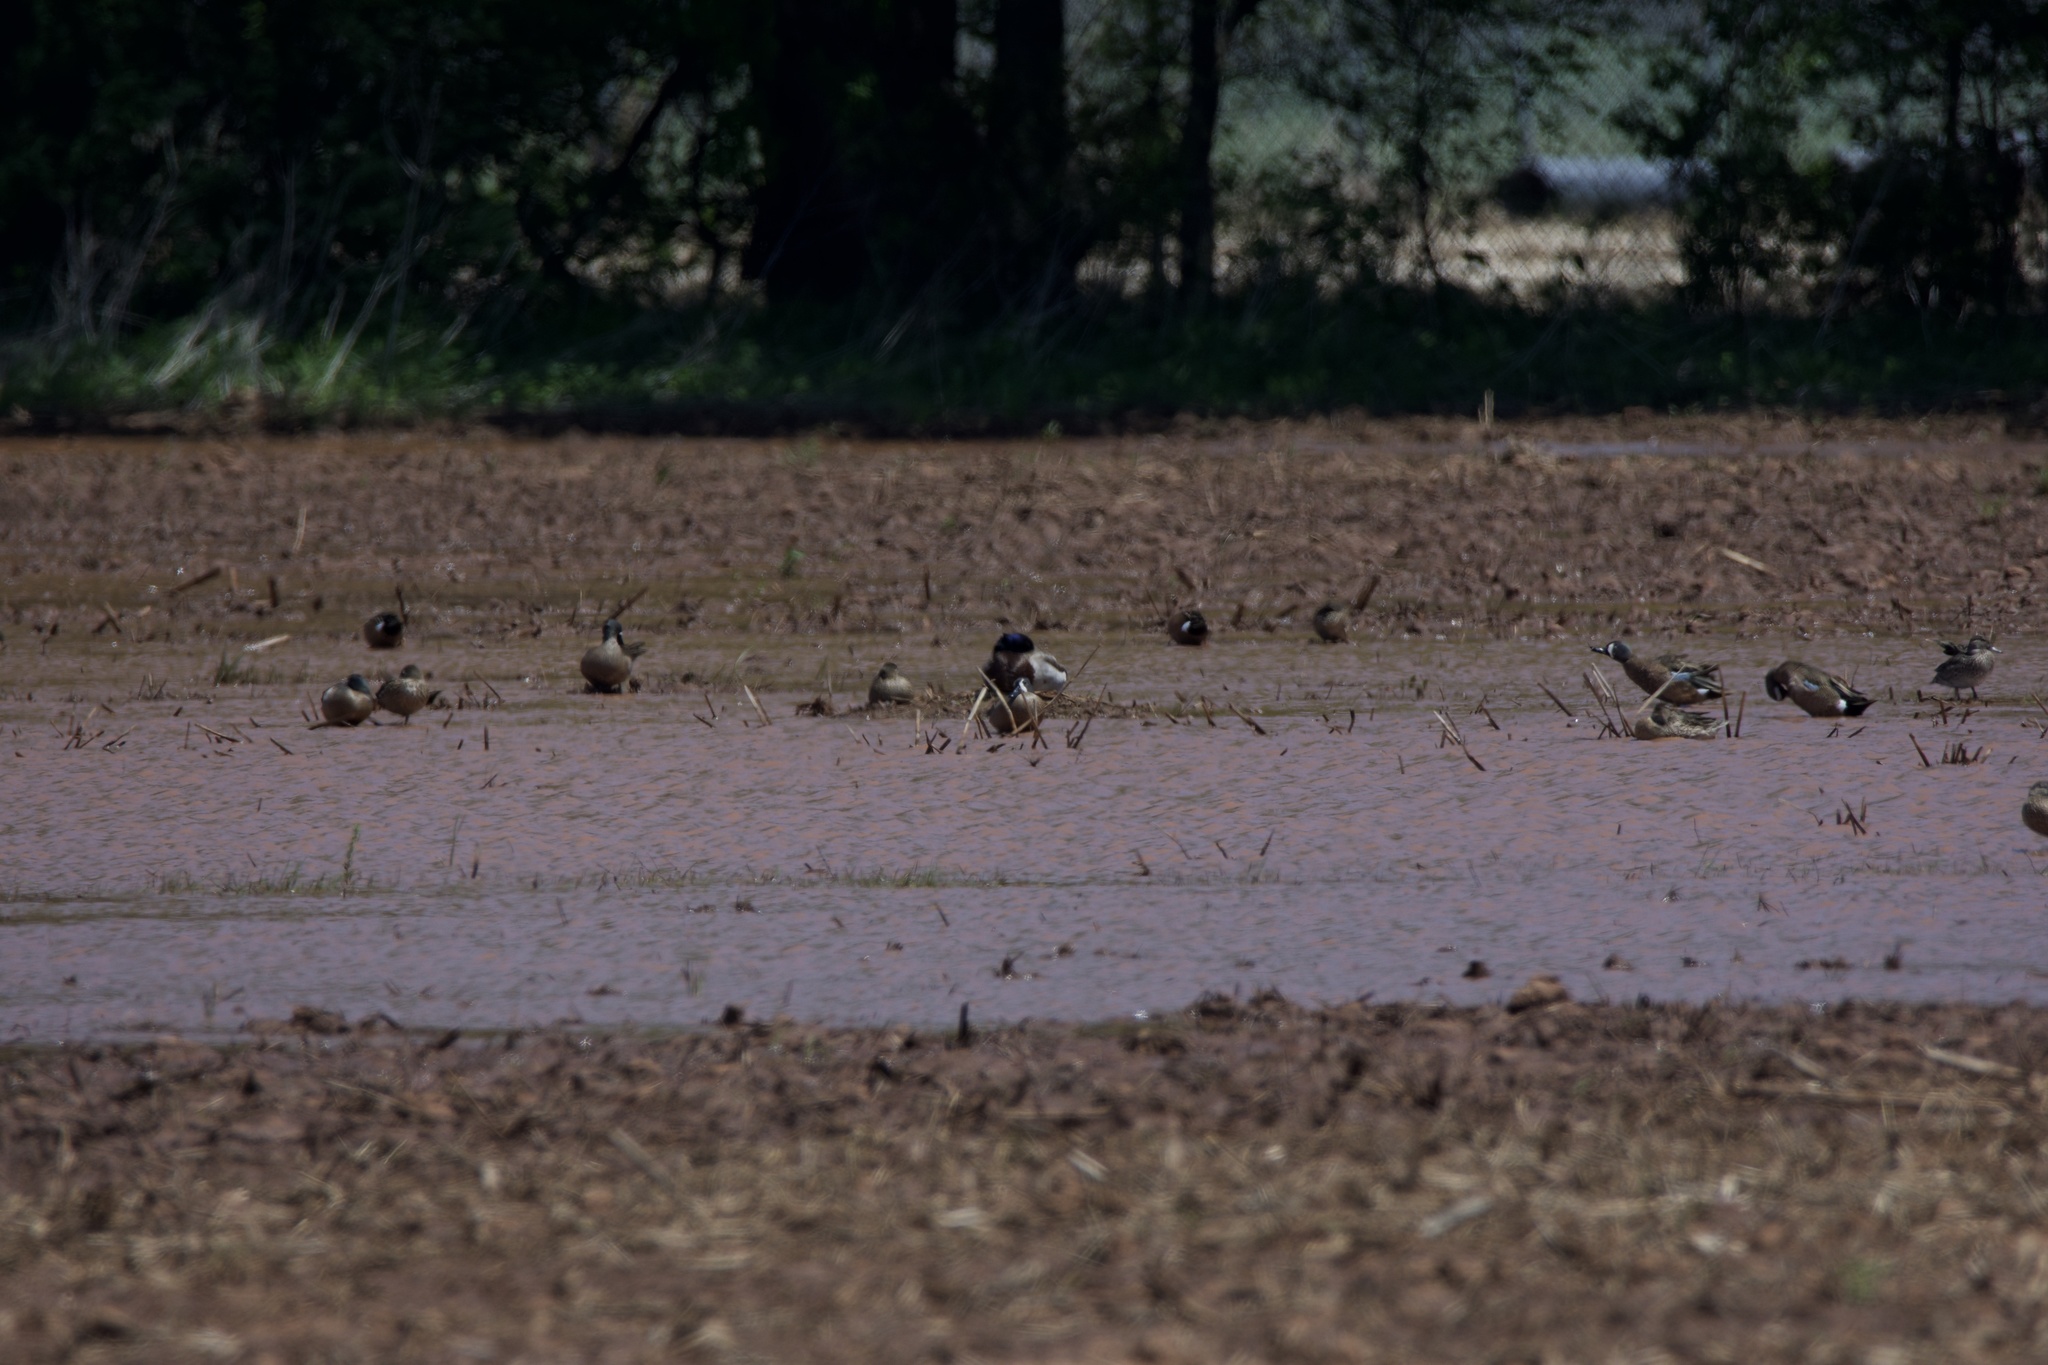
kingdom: Animalia
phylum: Chordata
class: Aves
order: Anseriformes
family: Anatidae
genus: Spatula
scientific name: Spatula discors
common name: Blue-winged teal
